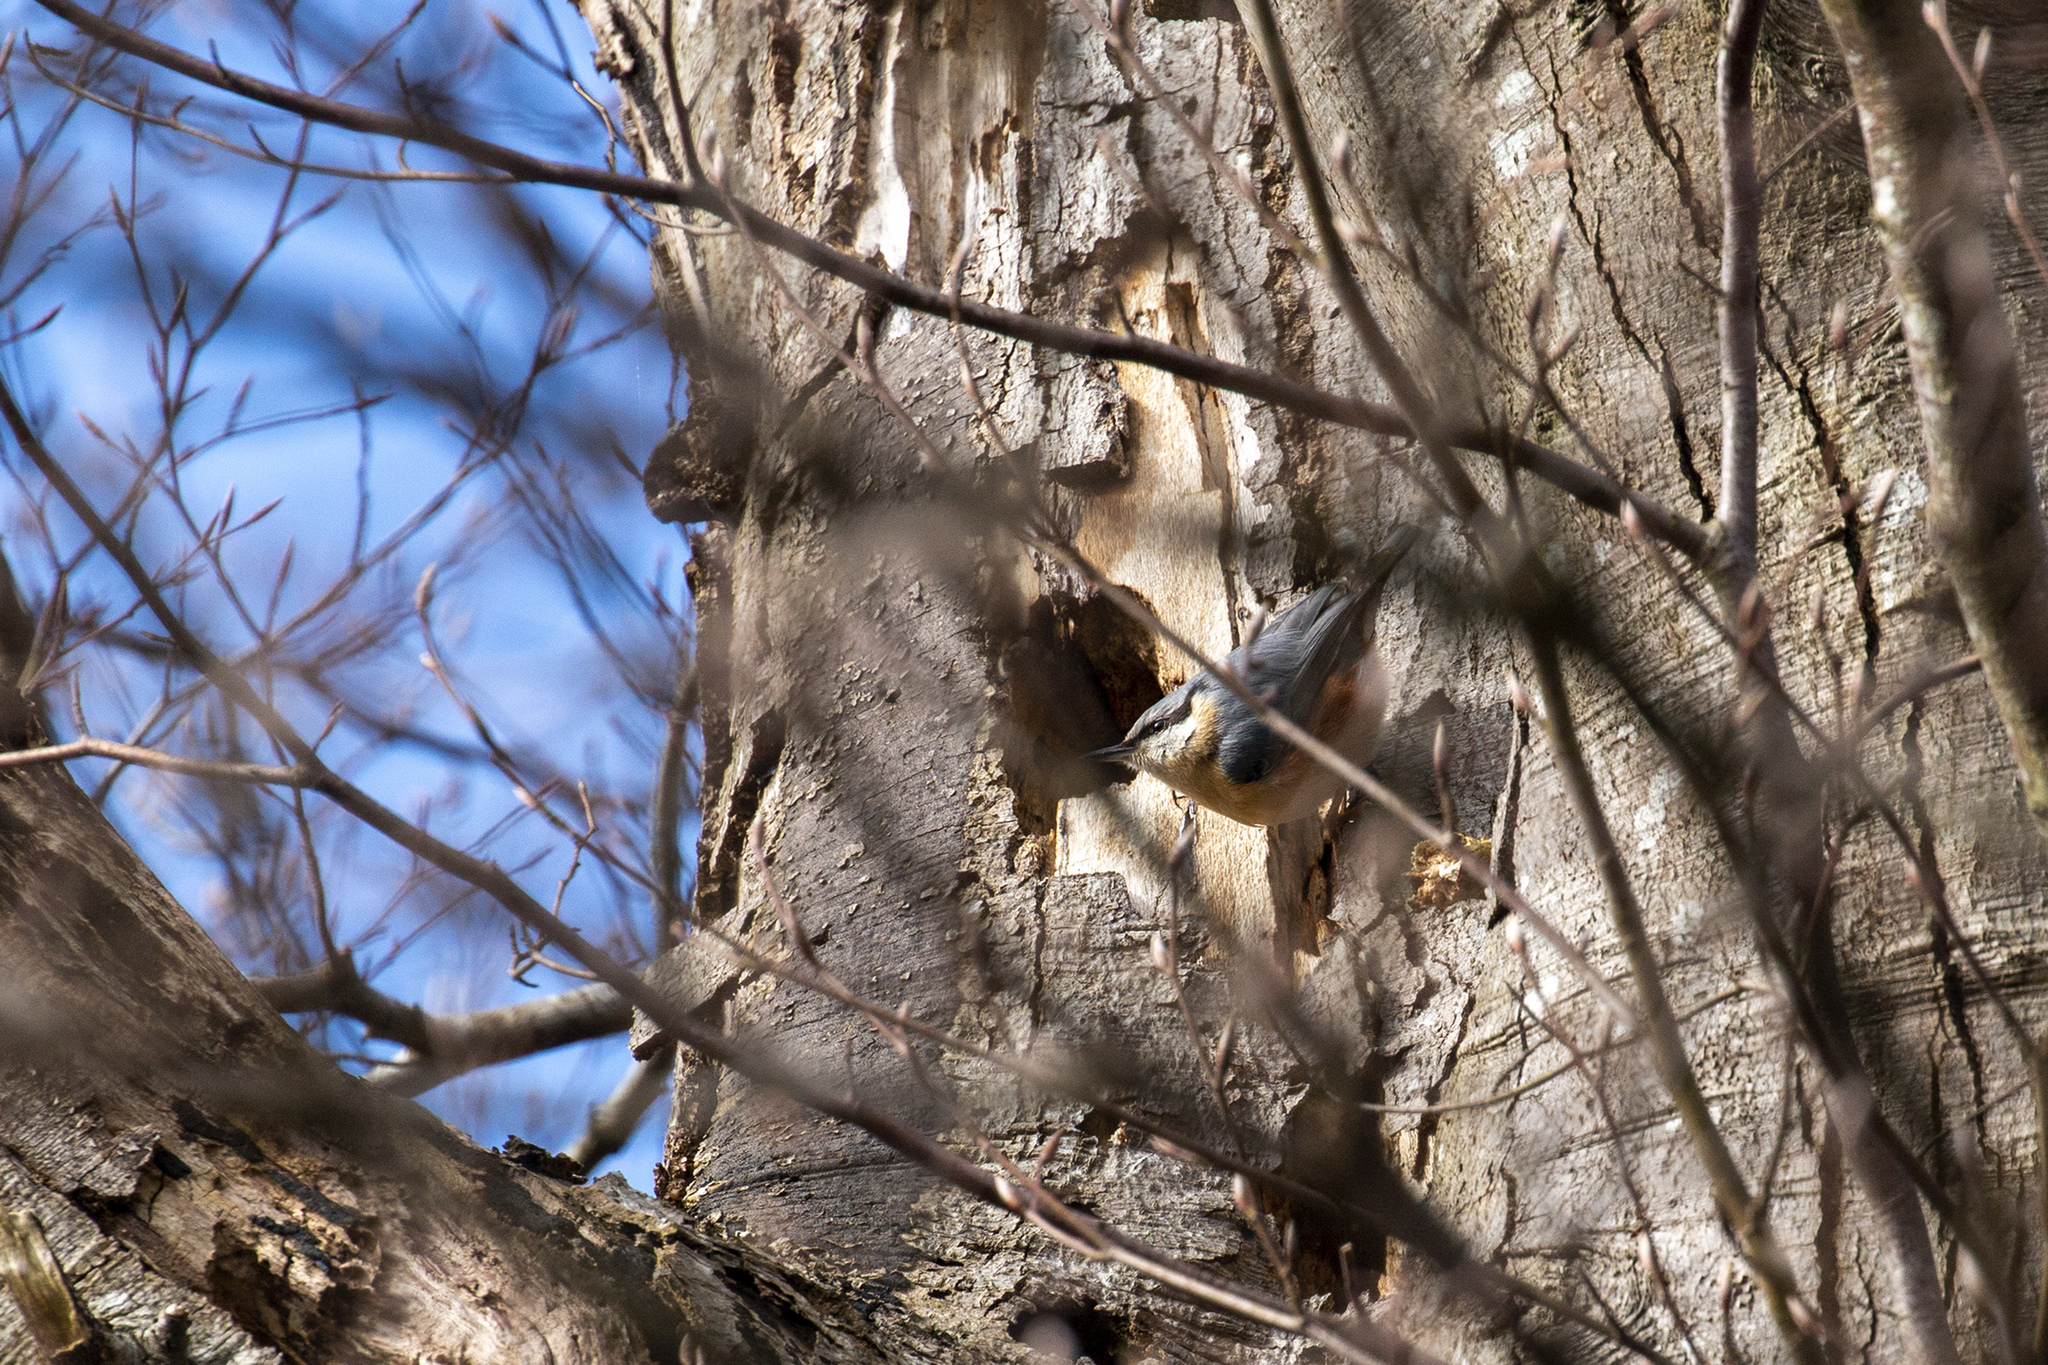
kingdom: Animalia
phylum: Chordata
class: Aves
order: Passeriformes
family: Sittidae
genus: Sitta
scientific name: Sitta europaea
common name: Eurasian nuthatch
